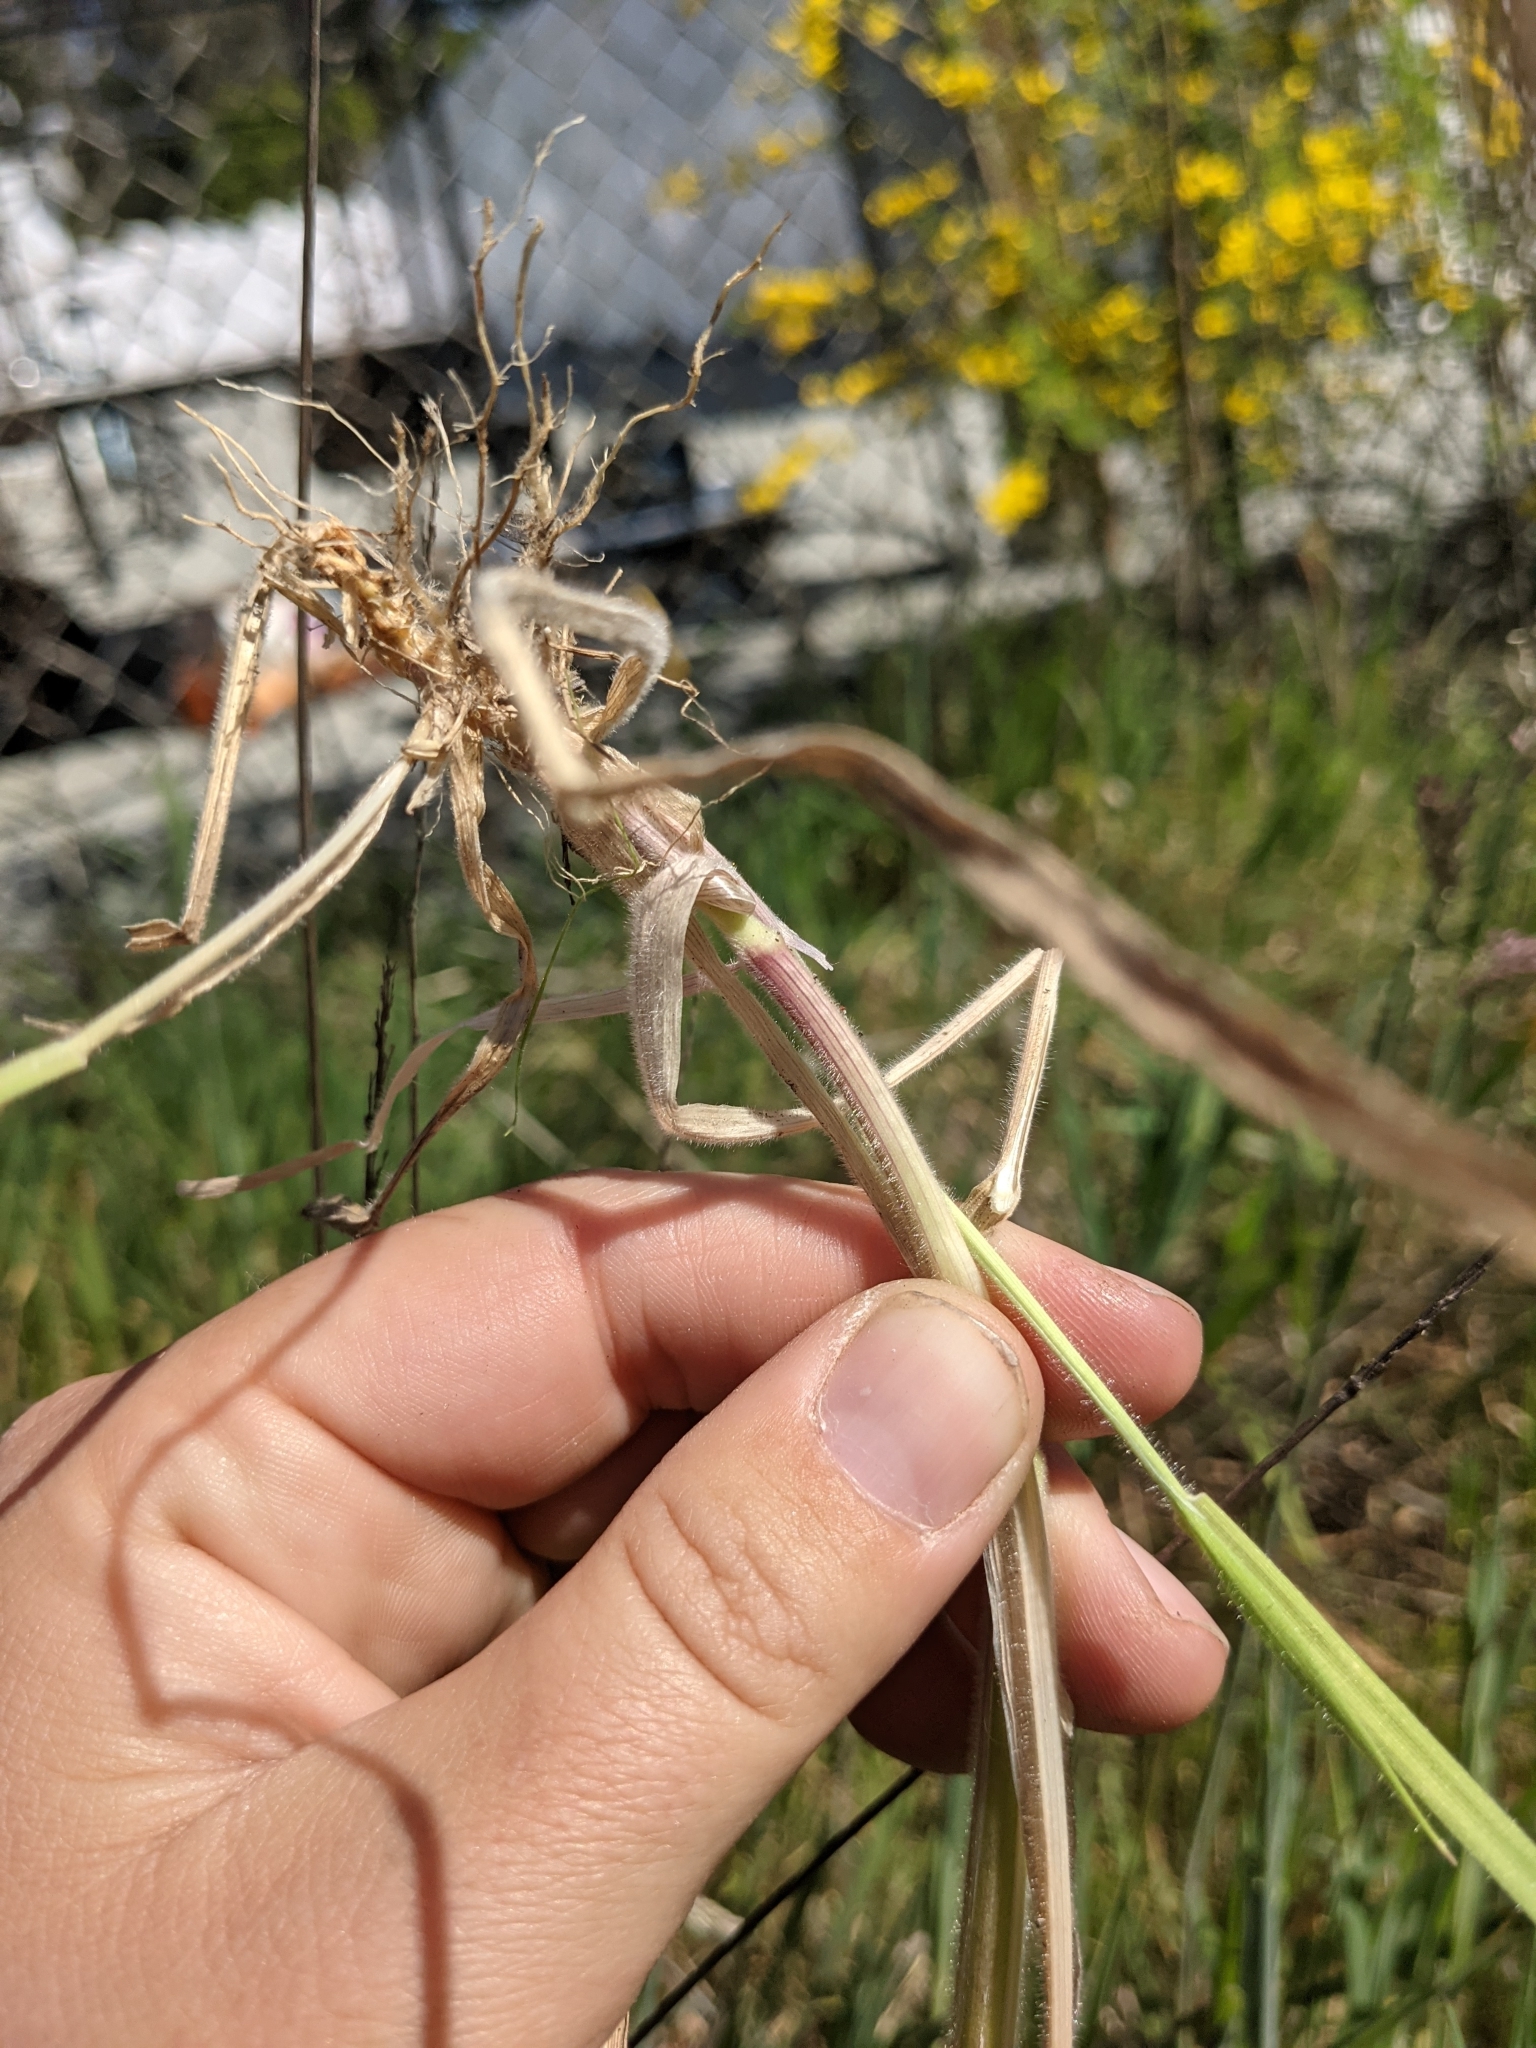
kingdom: Plantae
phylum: Tracheophyta
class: Liliopsida
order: Poales
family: Poaceae
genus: Holcus
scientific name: Holcus lanatus
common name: Yorkshire-fog
